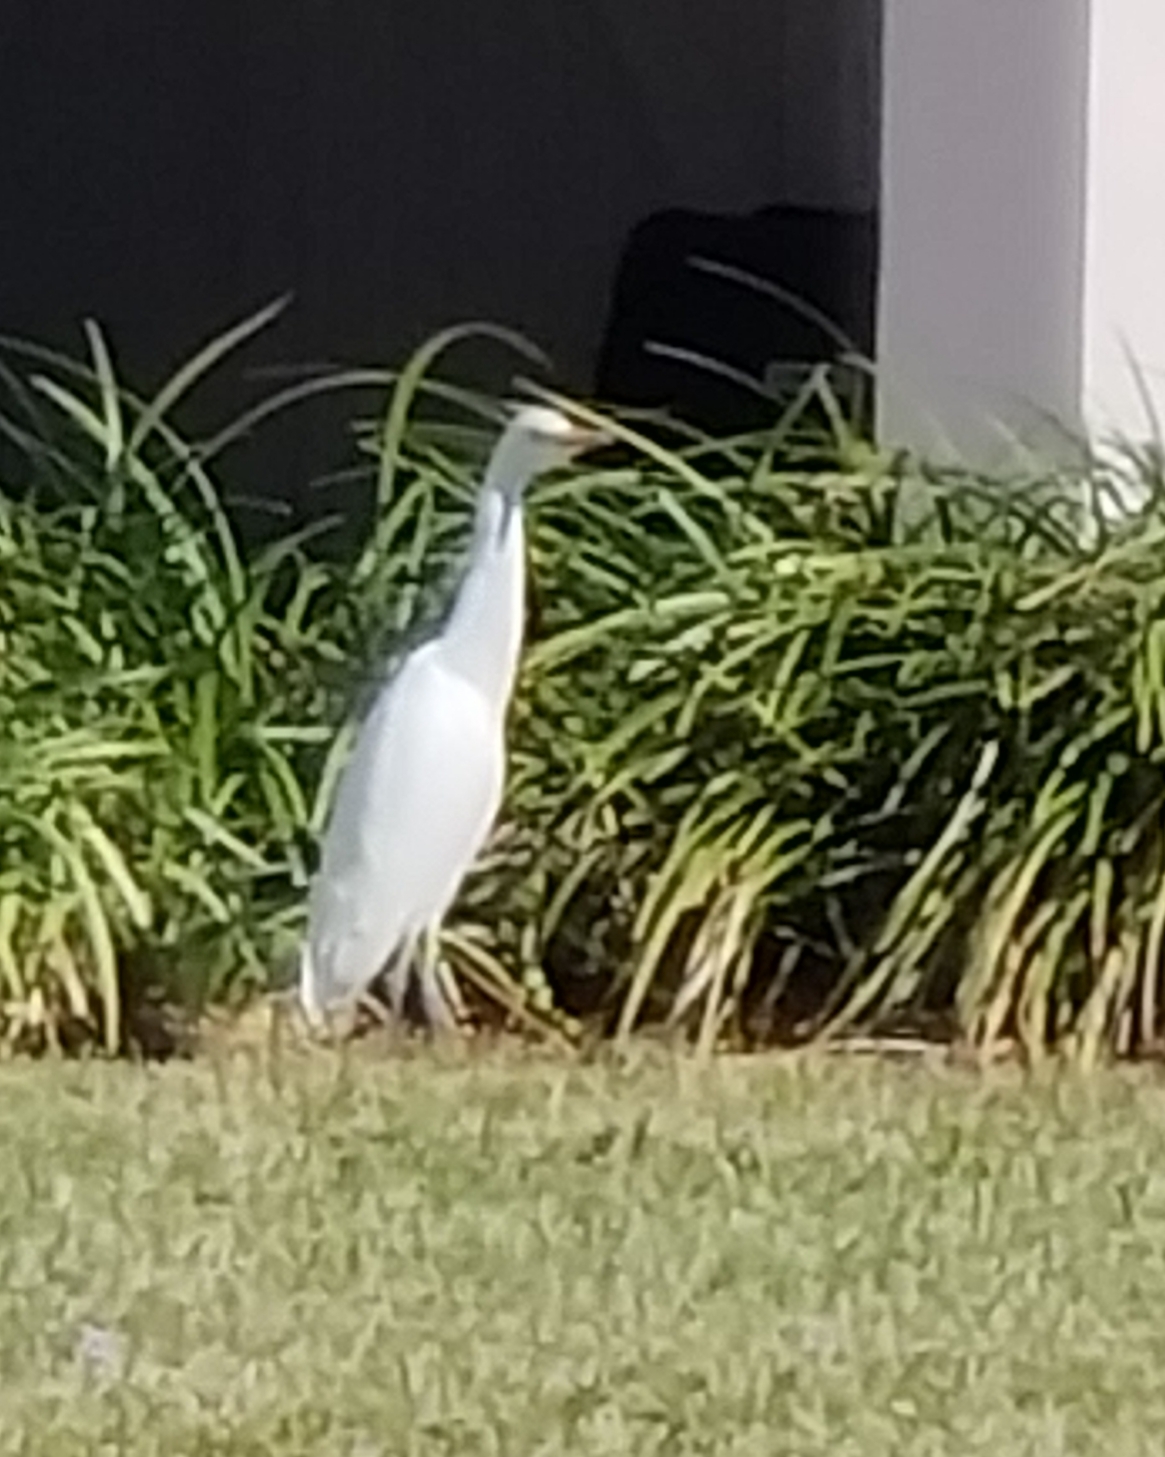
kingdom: Animalia
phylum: Chordata
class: Aves
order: Pelecaniformes
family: Ardeidae
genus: Bubulcus
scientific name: Bubulcus ibis
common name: Cattle egret
